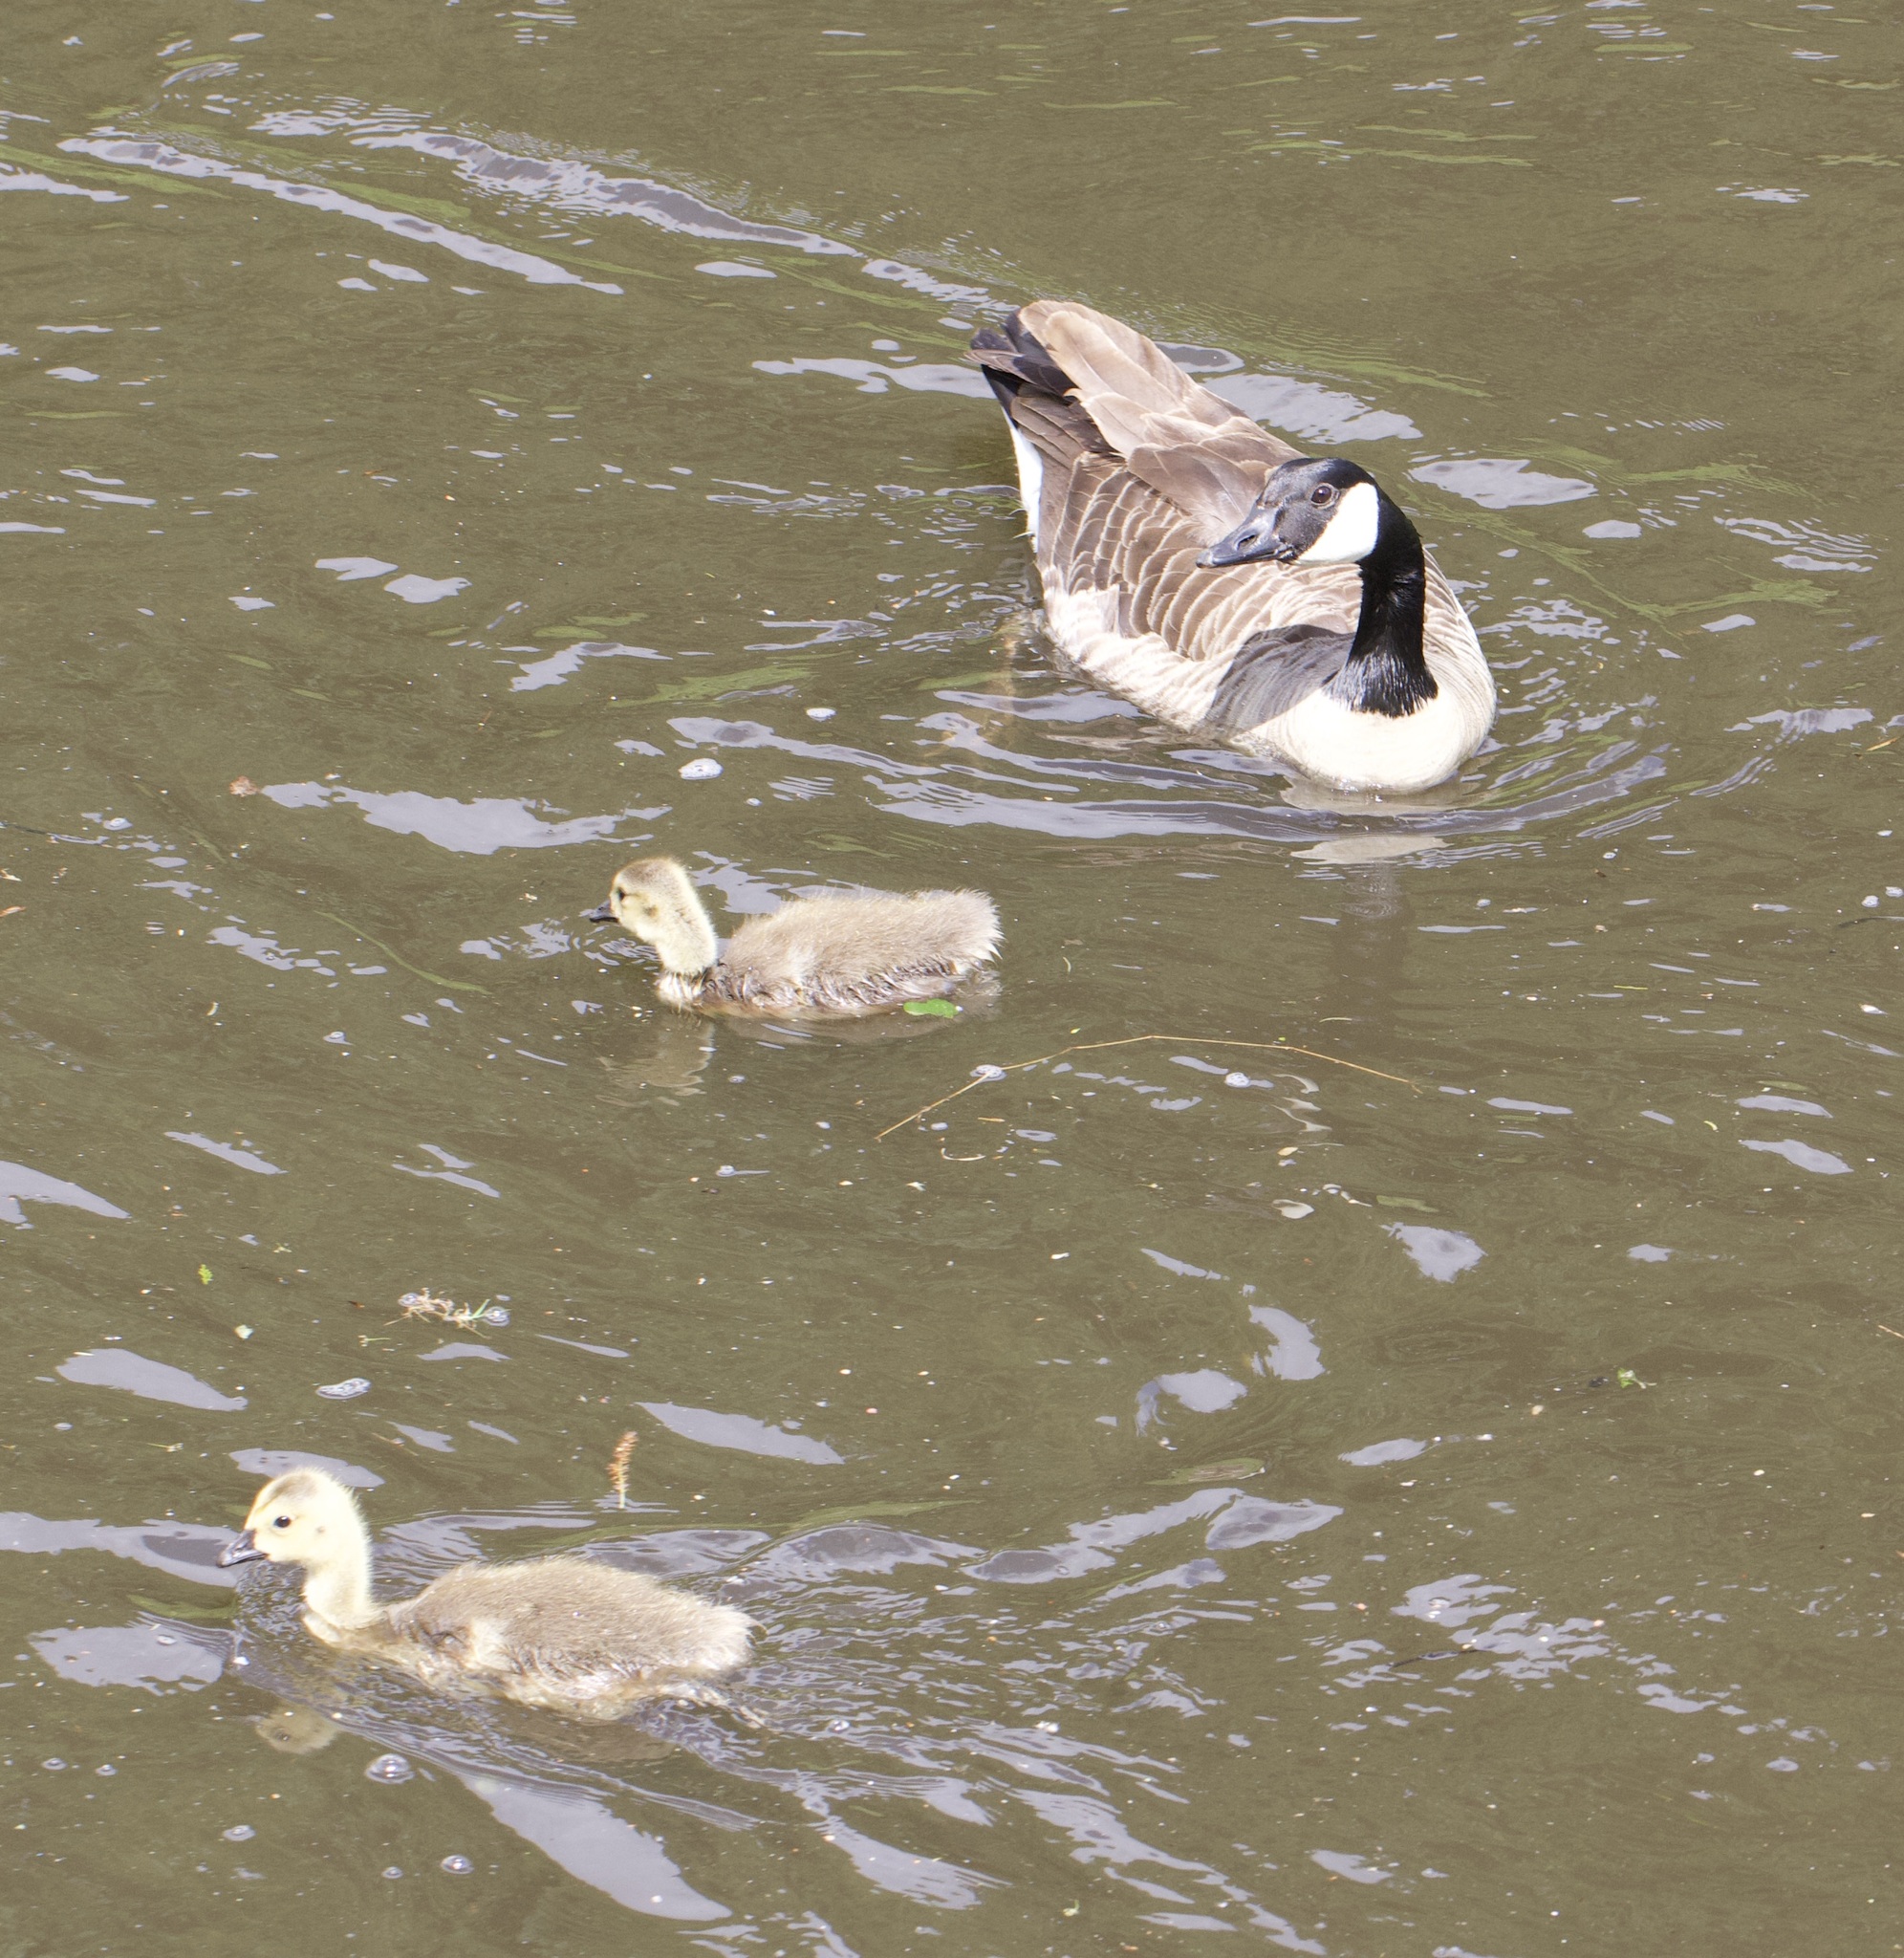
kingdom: Animalia
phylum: Chordata
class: Aves
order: Anseriformes
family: Anatidae
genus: Branta
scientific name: Branta canadensis
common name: Canada goose
